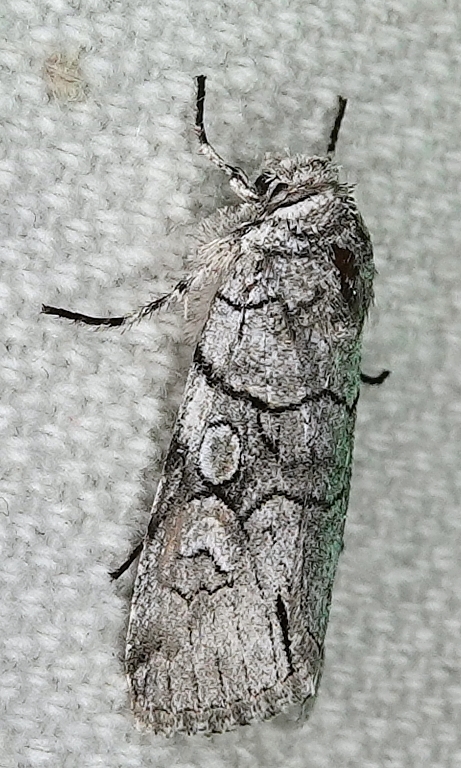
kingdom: Animalia
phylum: Arthropoda
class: Insecta
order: Lepidoptera
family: Noctuidae
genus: Sympistis
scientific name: Sympistis chionanthi
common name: Fringe-tree sallow
